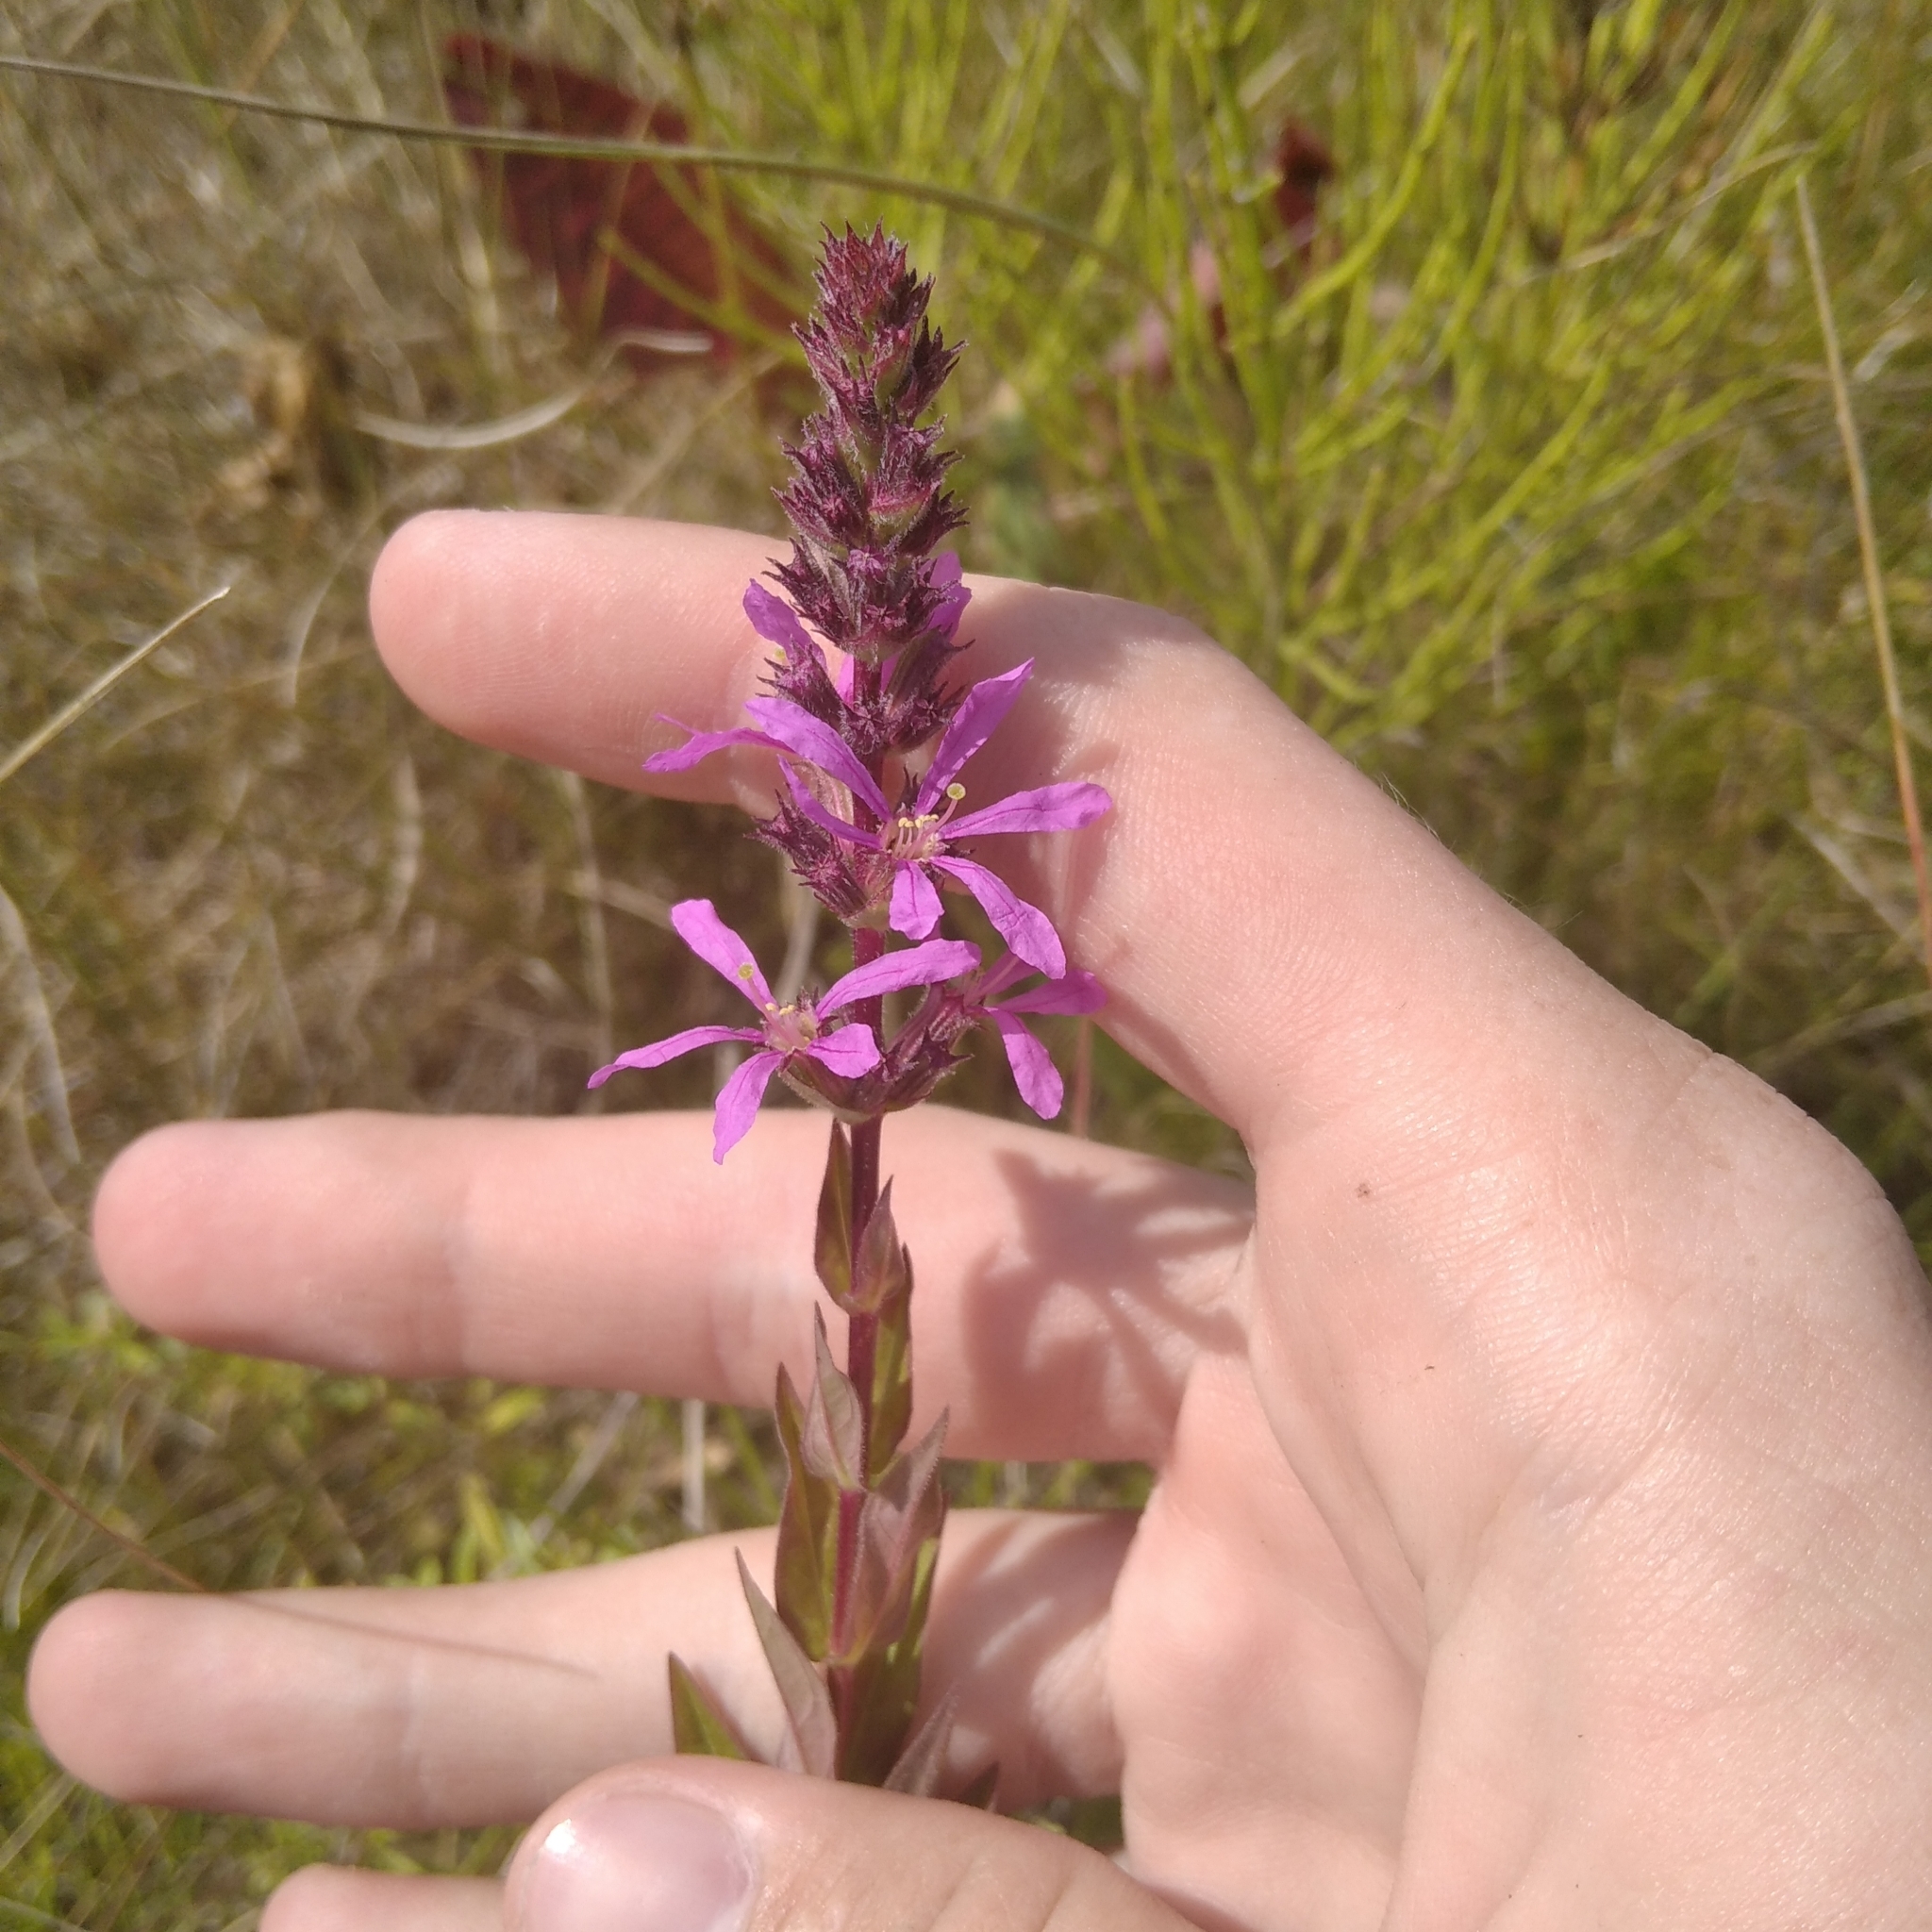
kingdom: Plantae
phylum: Tracheophyta
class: Magnoliopsida
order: Myrtales
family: Lythraceae
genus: Lythrum
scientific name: Lythrum salicaria
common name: Purple loosestrife
